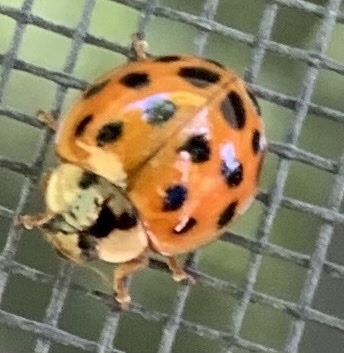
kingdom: Animalia
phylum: Arthropoda
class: Insecta
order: Coleoptera
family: Coccinellidae
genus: Harmonia
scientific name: Harmonia axyridis
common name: Harlequin ladybird
